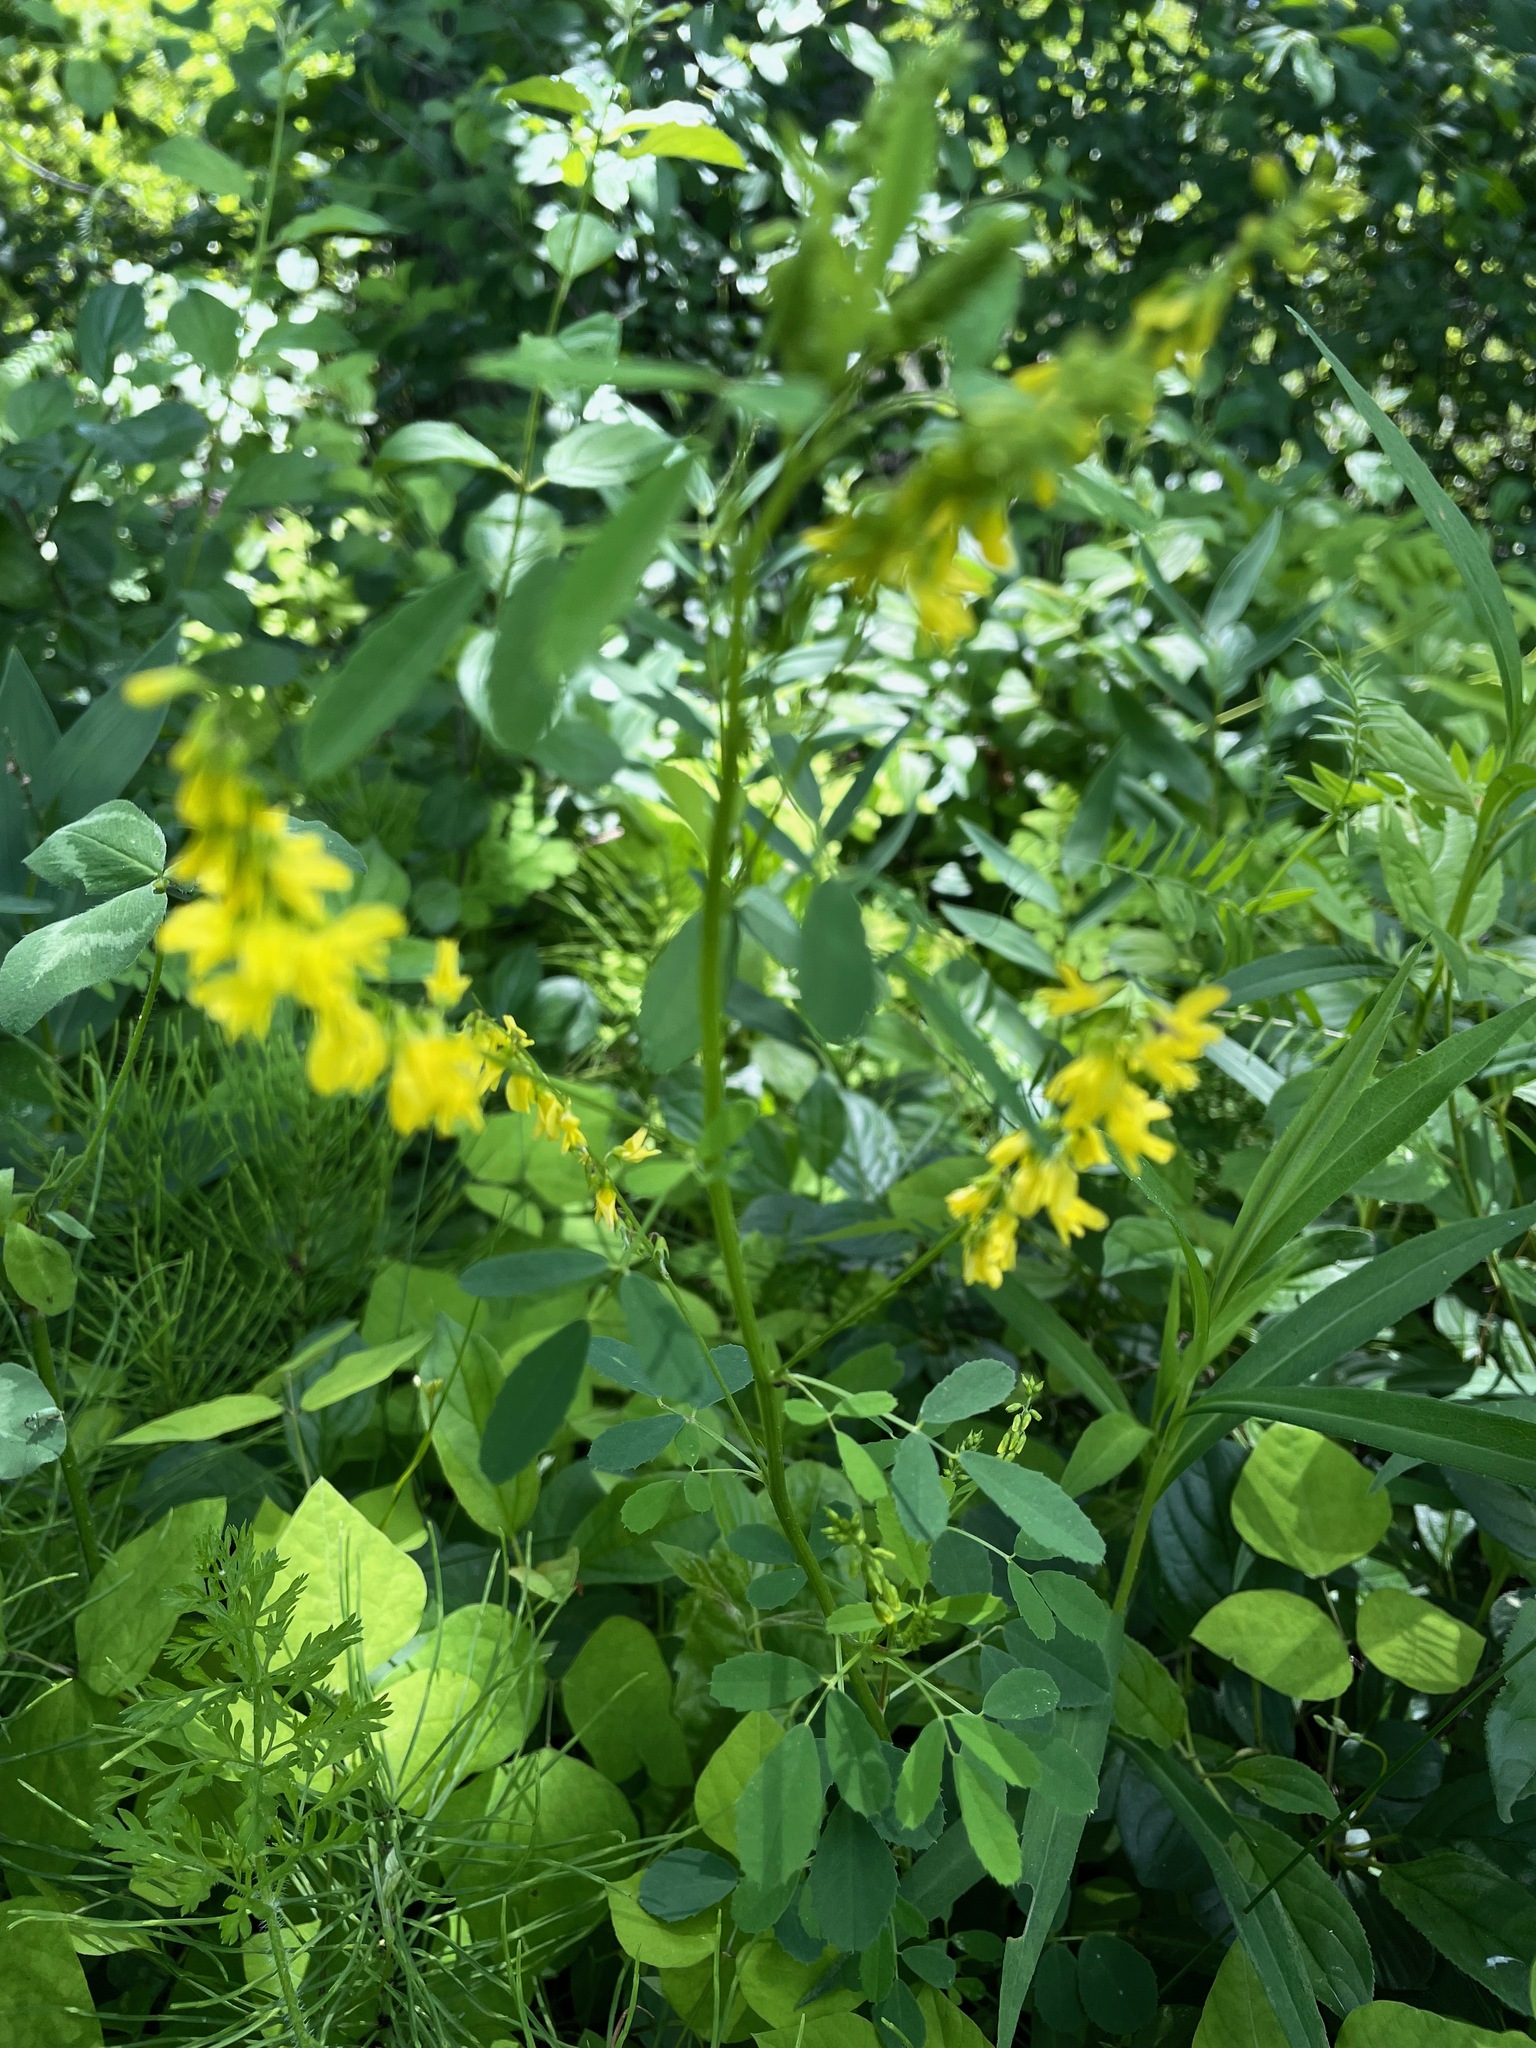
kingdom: Plantae
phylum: Tracheophyta
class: Magnoliopsida
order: Fabales
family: Fabaceae
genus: Melilotus
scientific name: Melilotus officinalis
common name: Sweetclover
